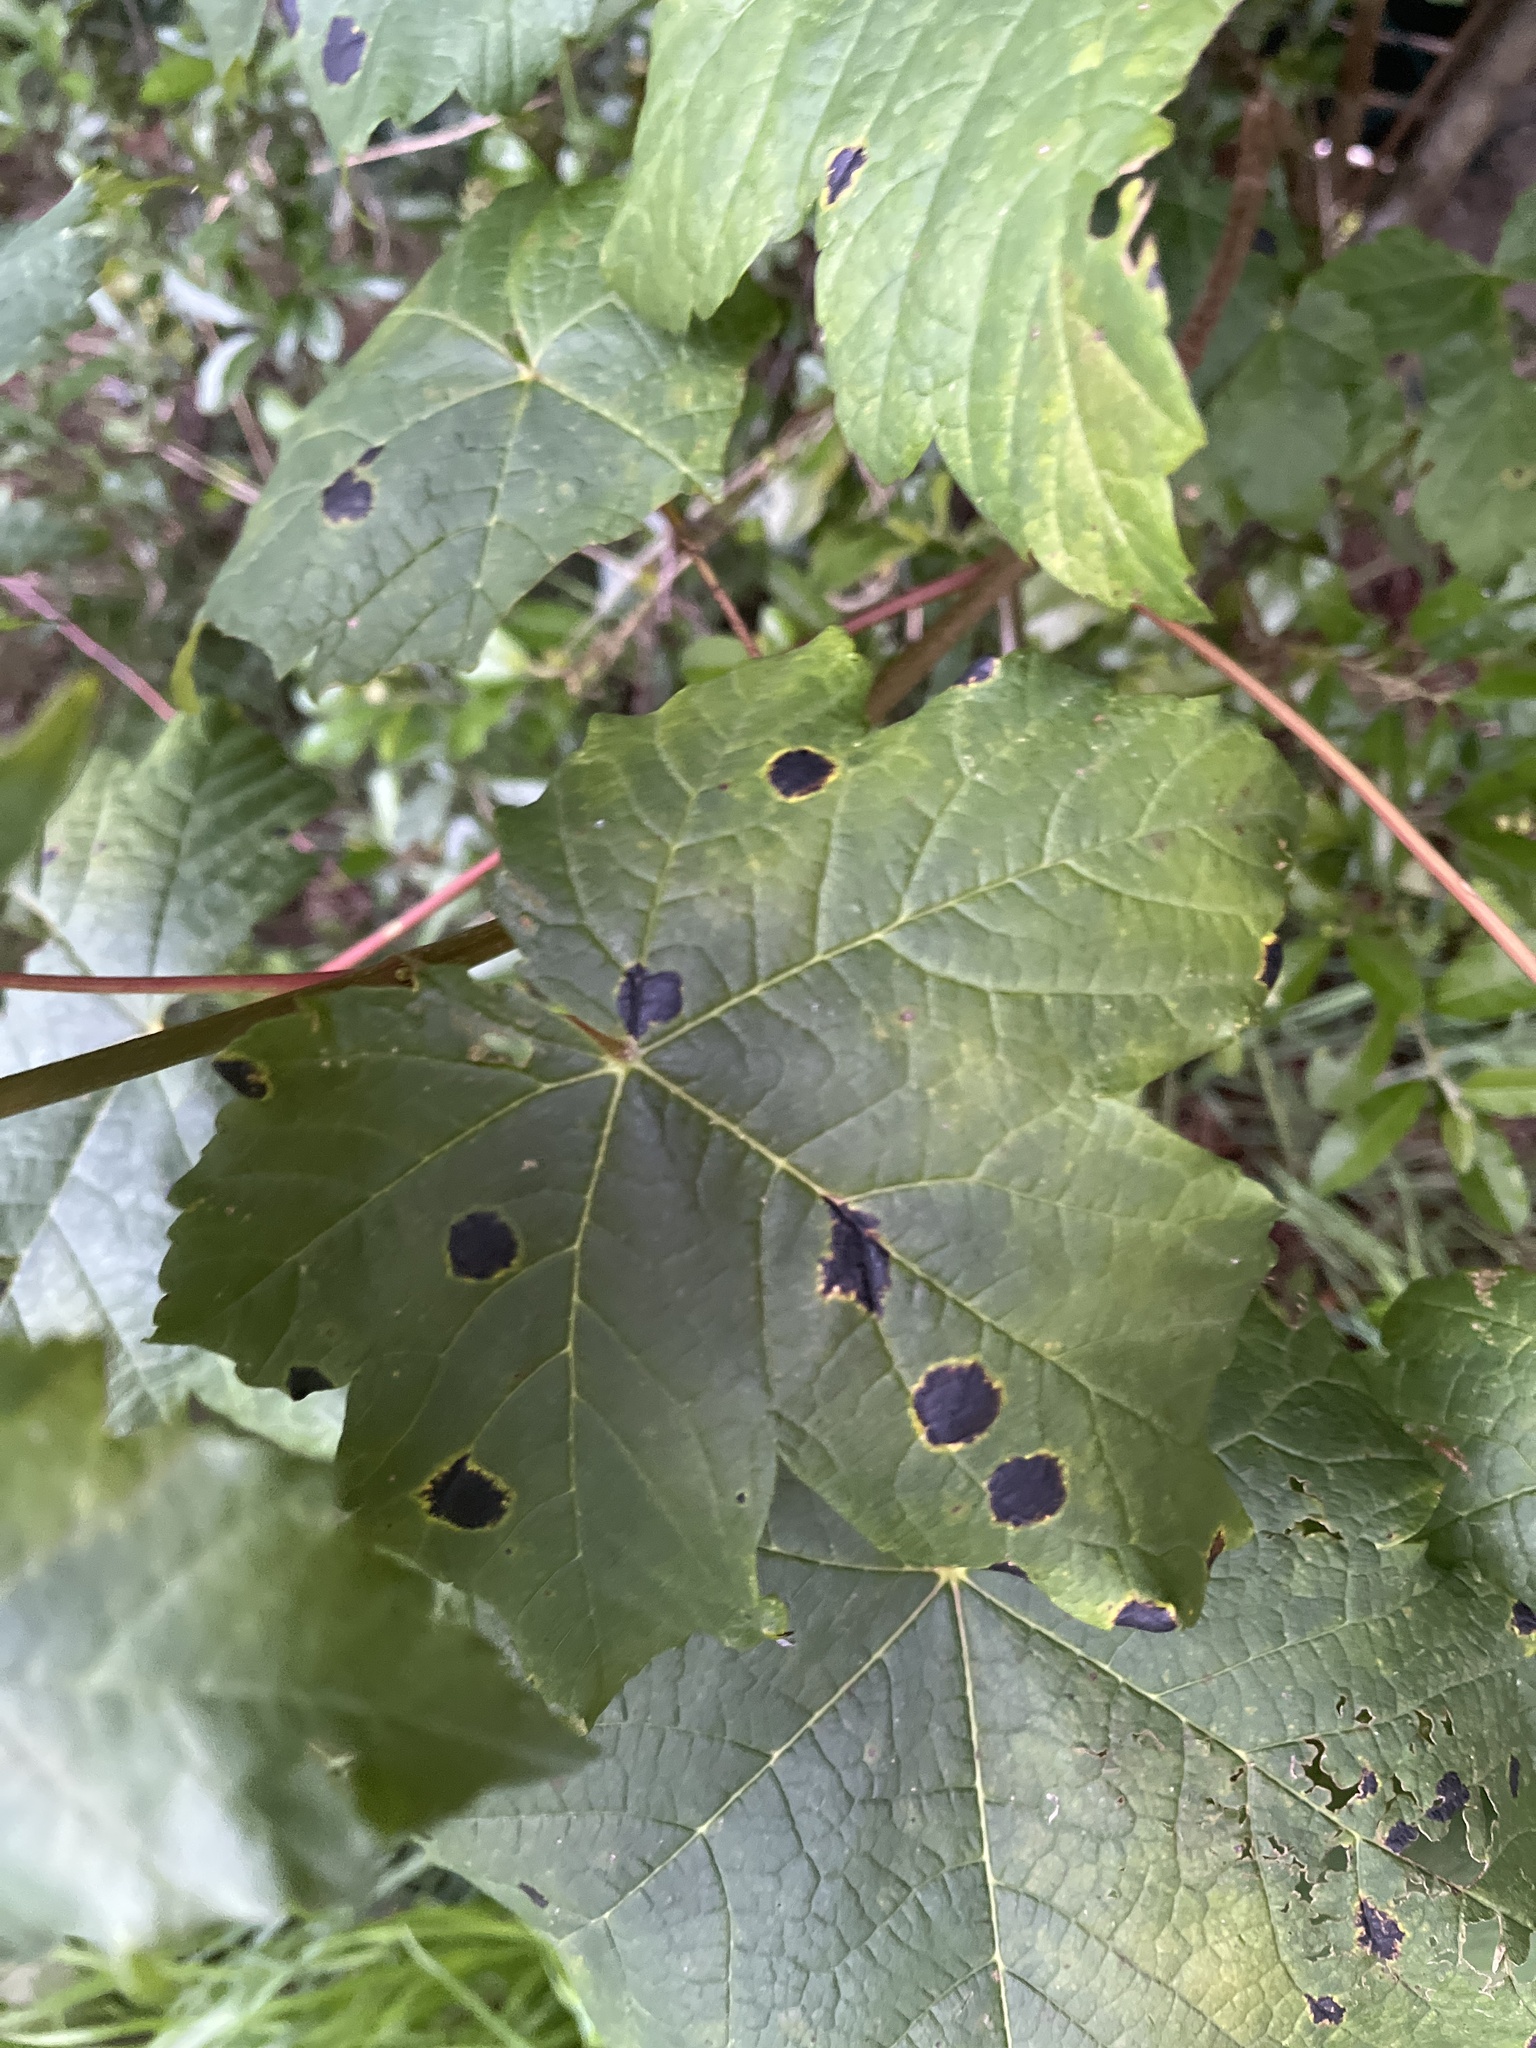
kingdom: Fungi
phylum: Ascomycota
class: Leotiomycetes
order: Rhytismatales
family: Rhytismataceae
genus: Rhytisma
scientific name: Rhytisma acerinum
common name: European tar spot
